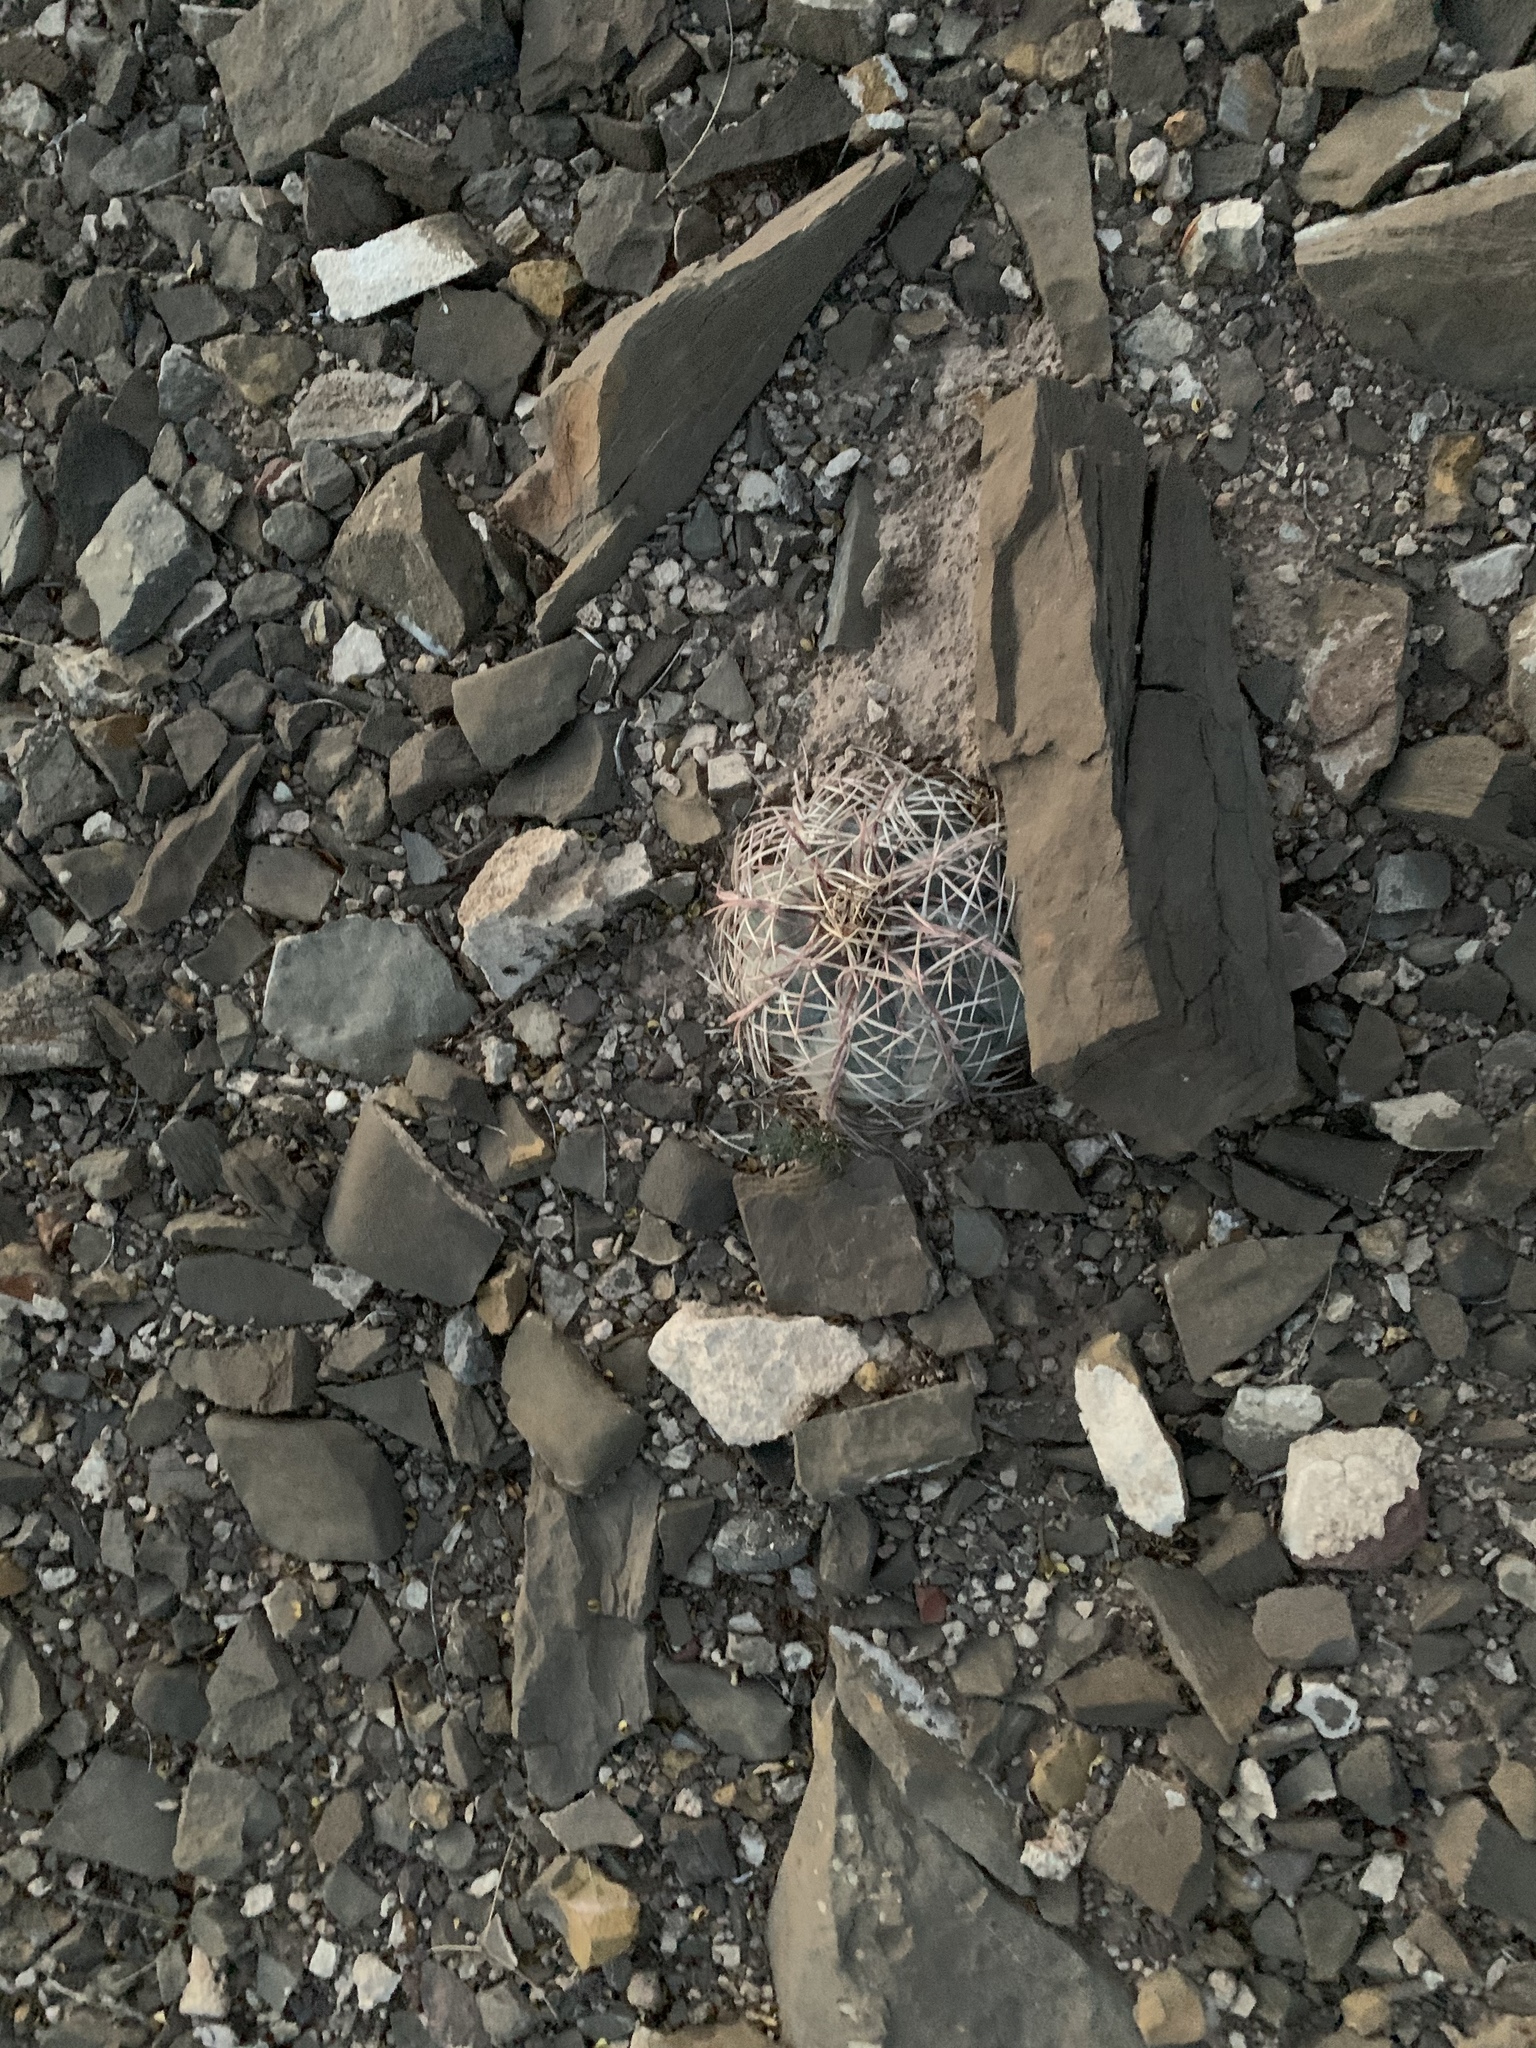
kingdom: Plantae
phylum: Tracheophyta
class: Magnoliopsida
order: Caryophyllales
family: Cactaceae
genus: Echinocactus
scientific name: Echinocactus horizonthalonius
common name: Devilshead
